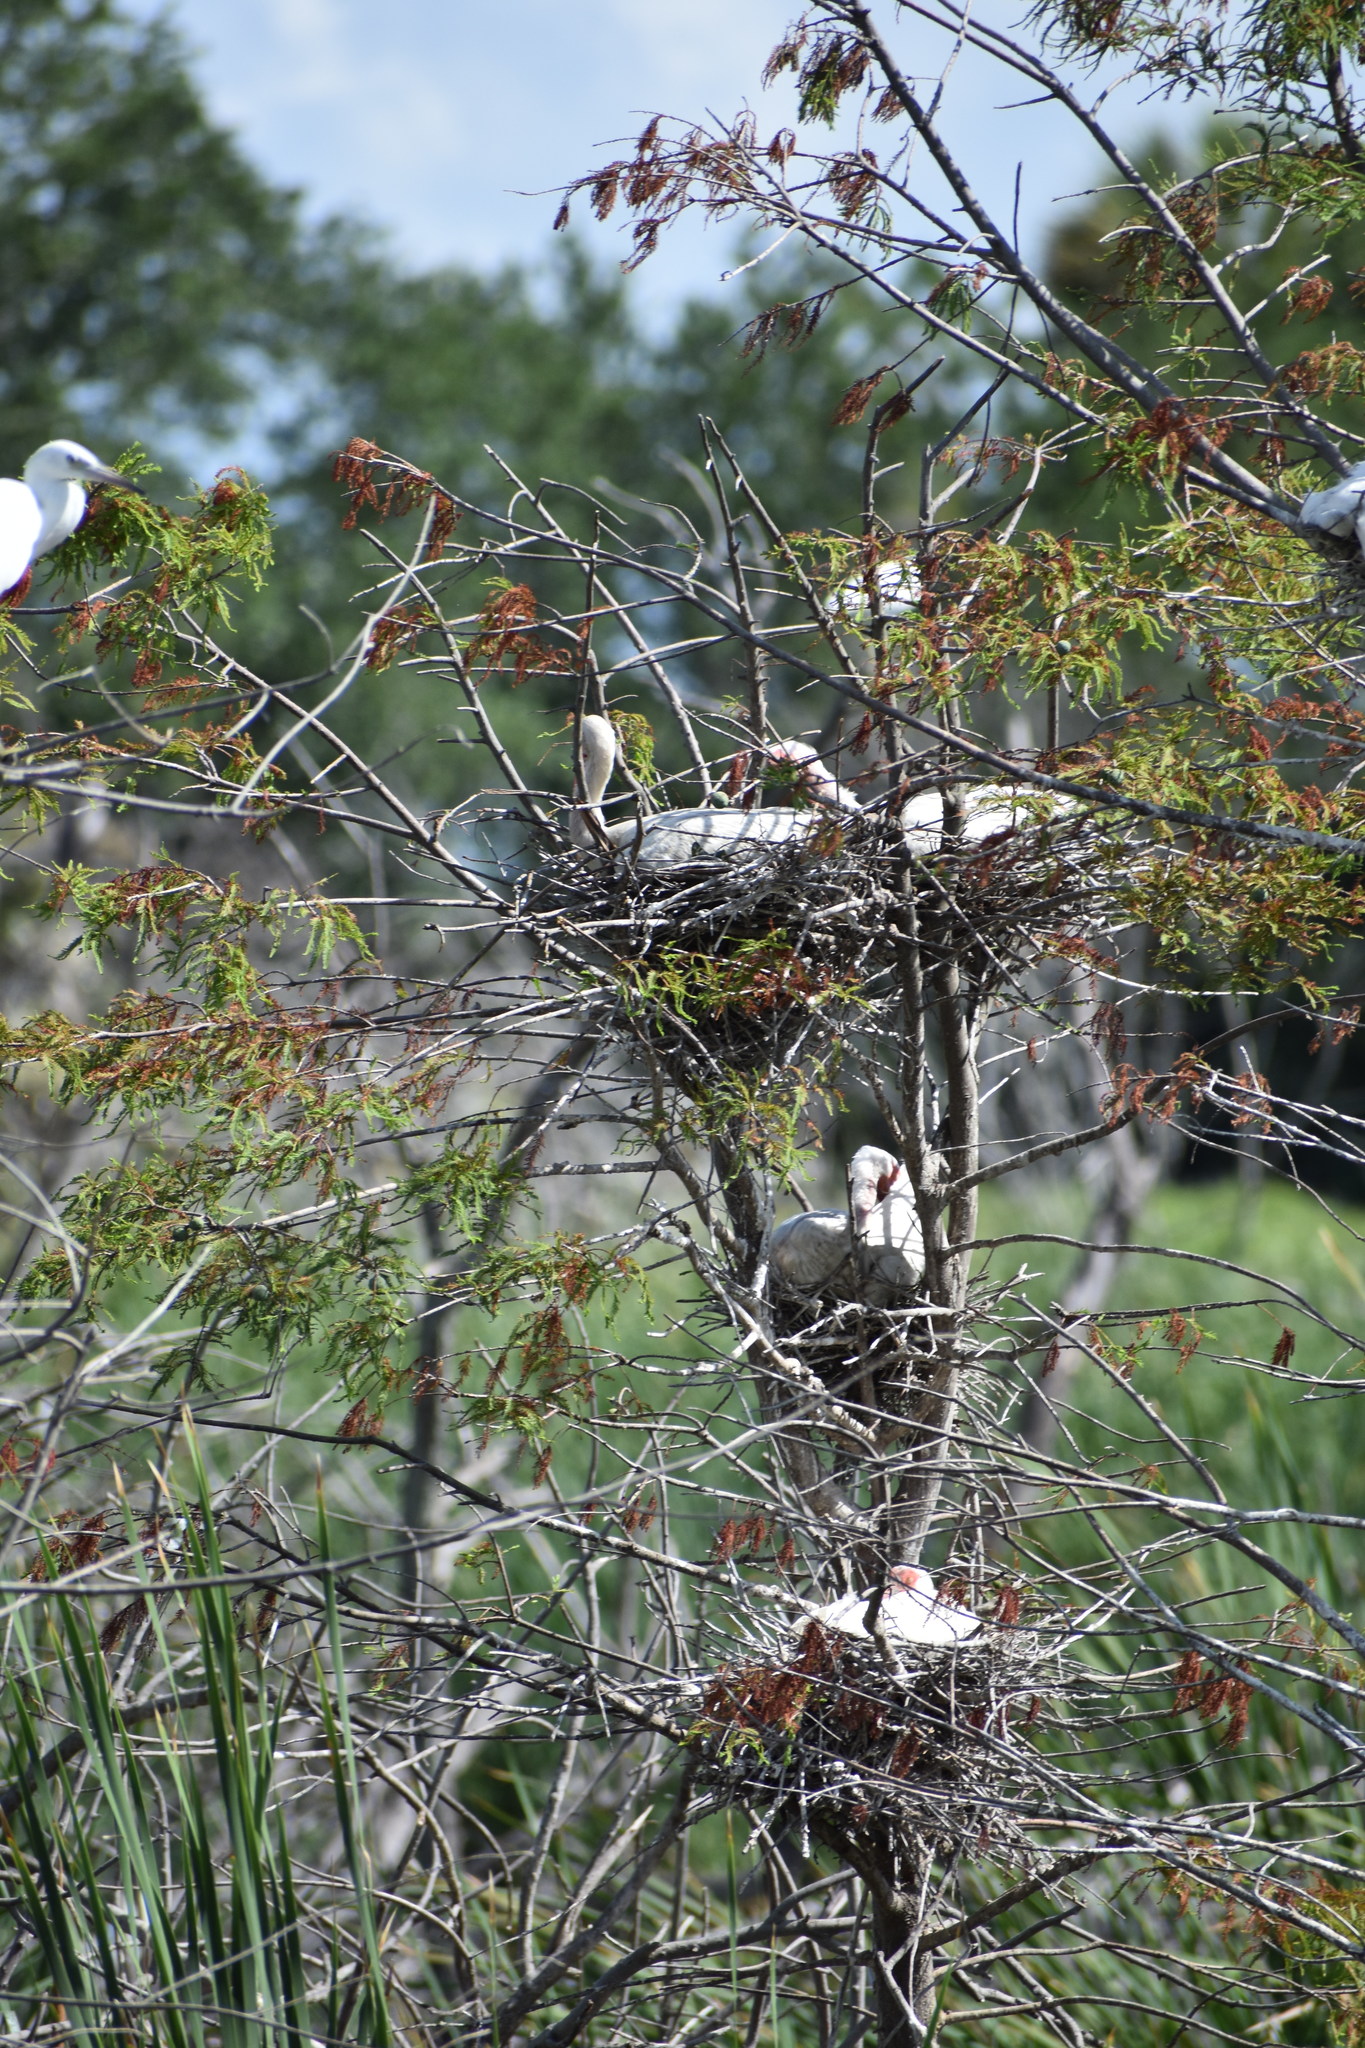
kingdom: Animalia
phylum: Chordata
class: Aves
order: Pelecaniformes
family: Threskiornithidae
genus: Eudocimus
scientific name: Eudocimus albus
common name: White ibis
